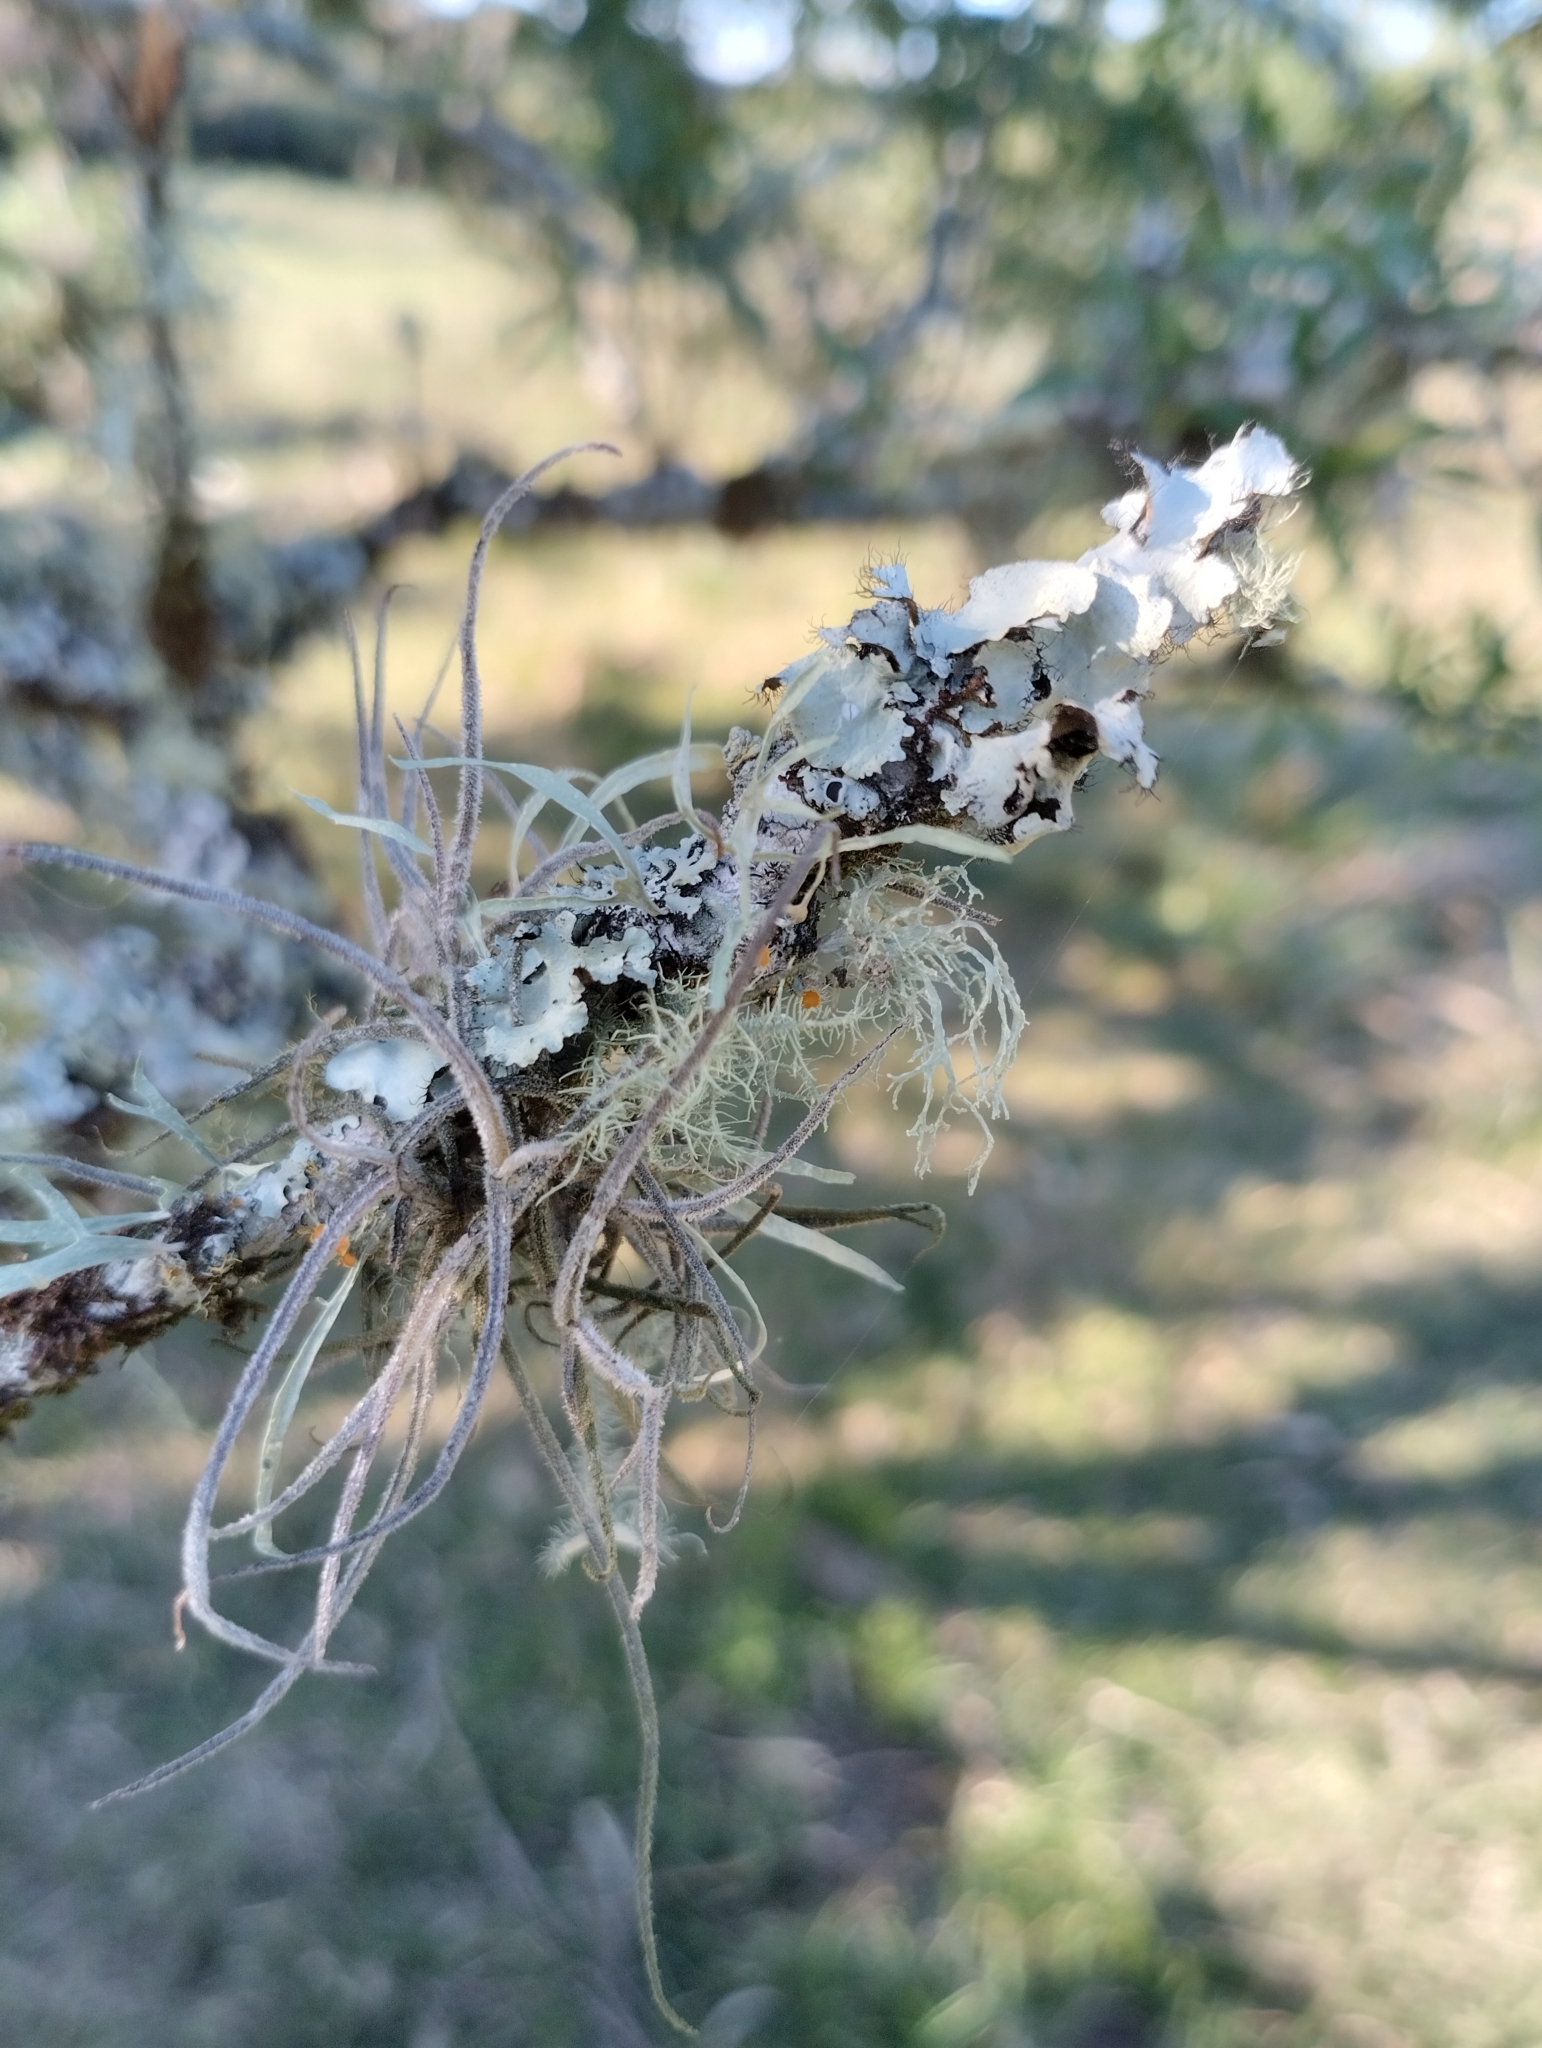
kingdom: Plantae
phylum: Tracheophyta
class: Liliopsida
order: Poales
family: Bromeliaceae
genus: Tillandsia
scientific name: Tillandsia recurvata
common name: Small ballmoss
